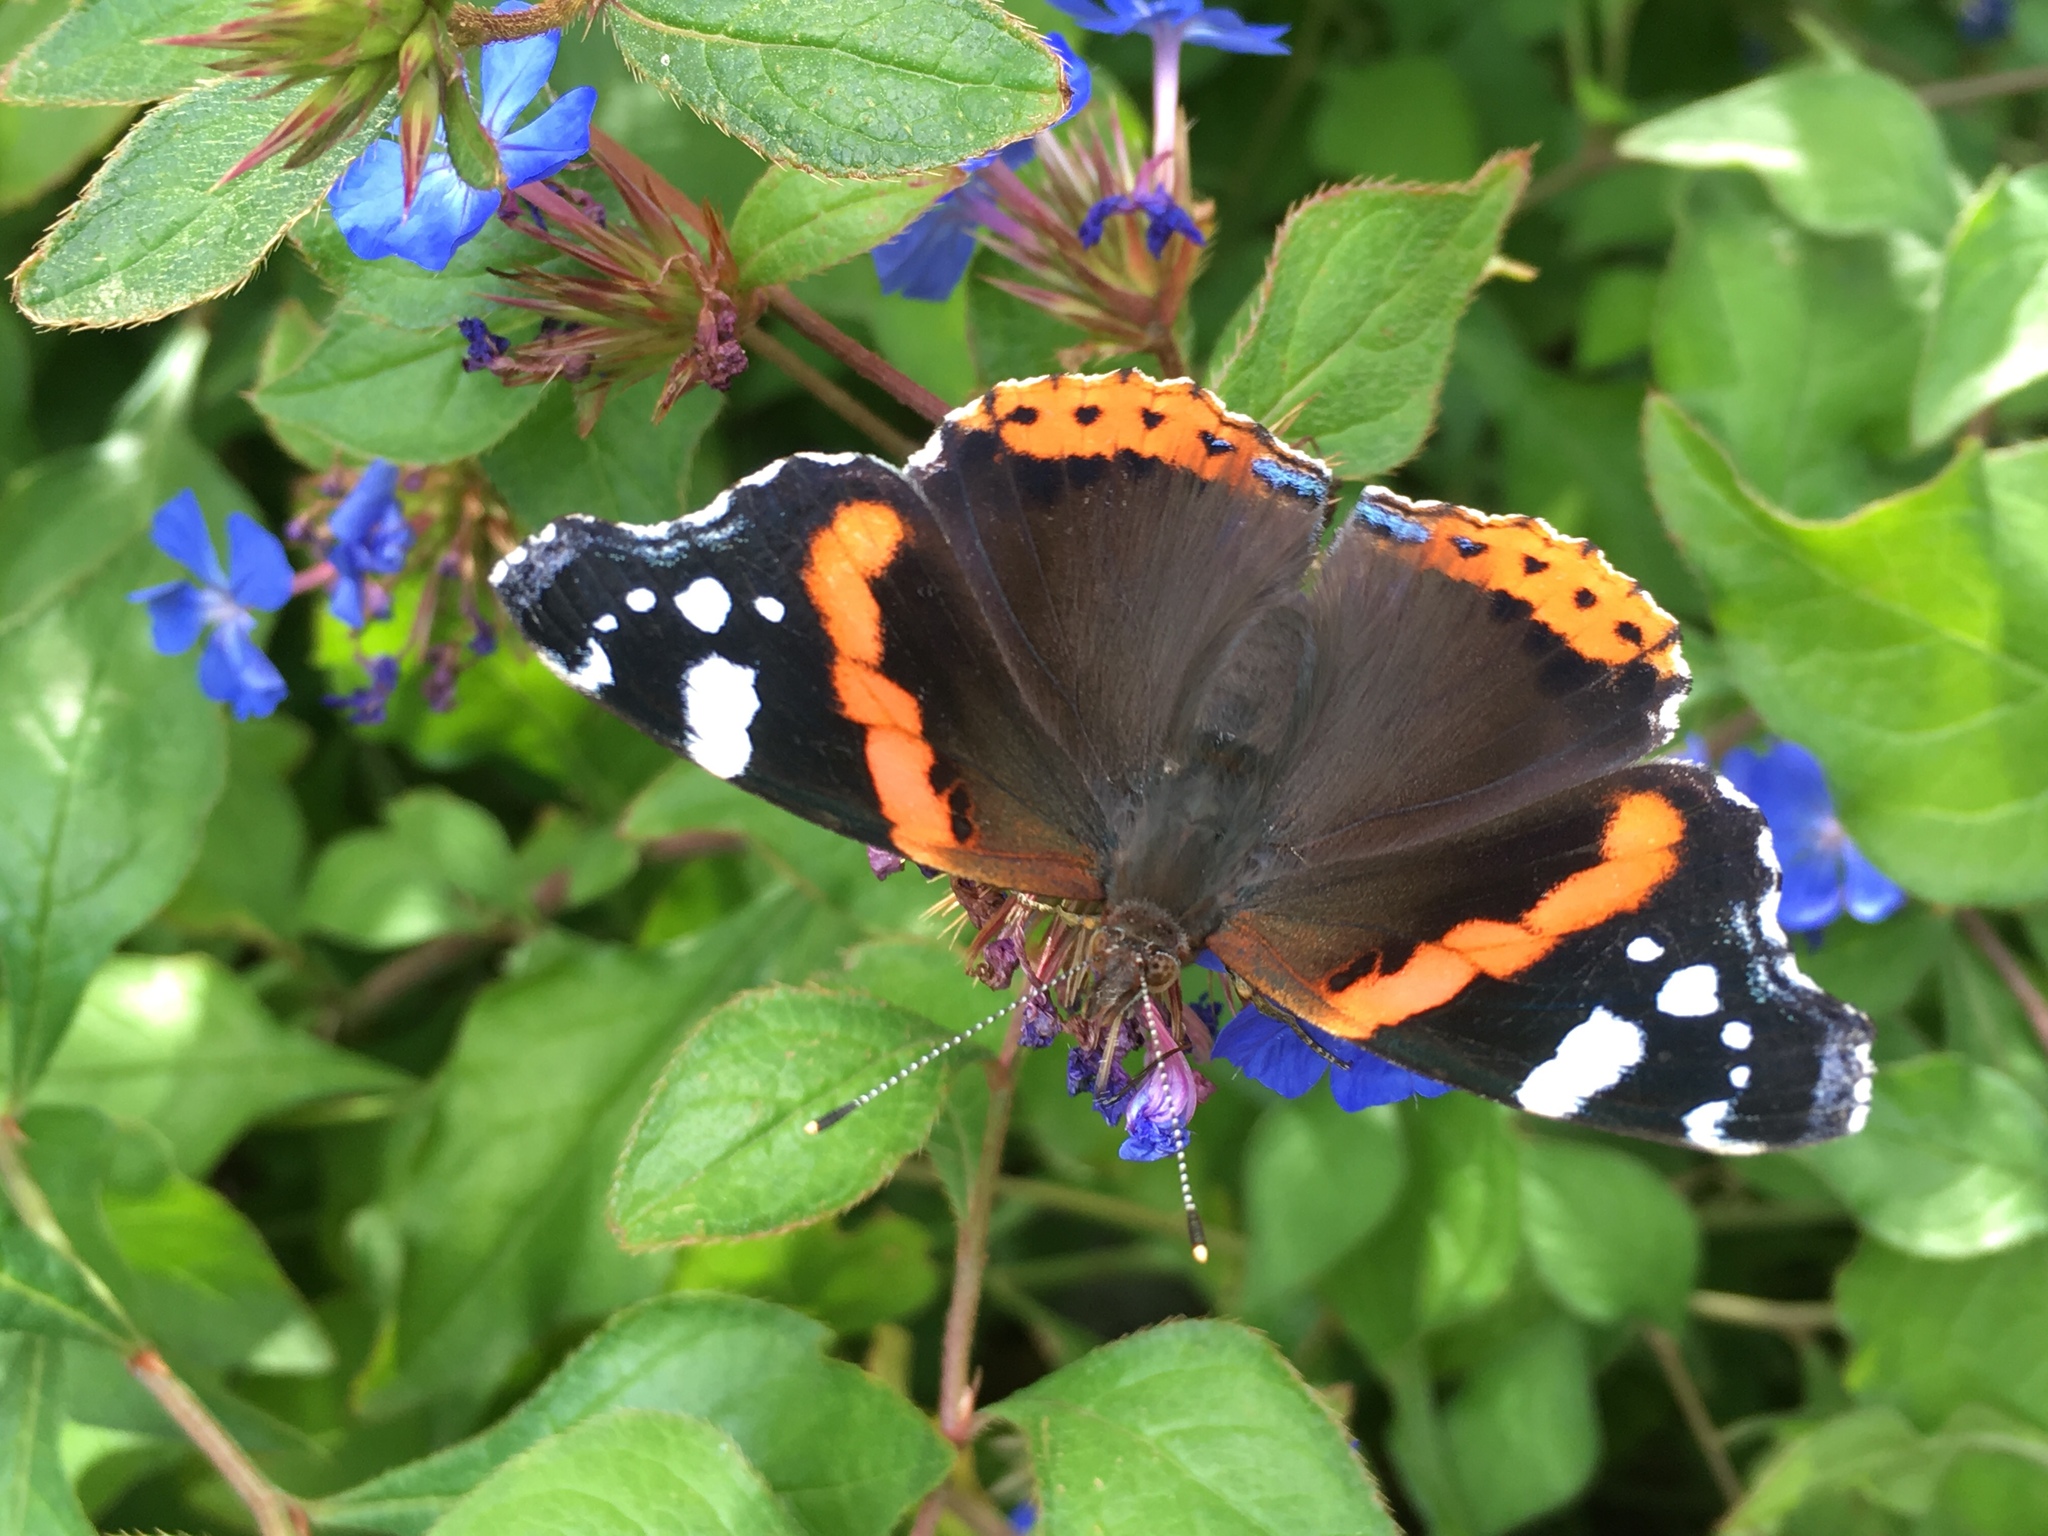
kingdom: Animalia
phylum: Arthropoda
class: Insecta
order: Lepidoptera
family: Nymphalidae
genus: Vanessa
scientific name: Vanessa atalanta
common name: Red admiral
